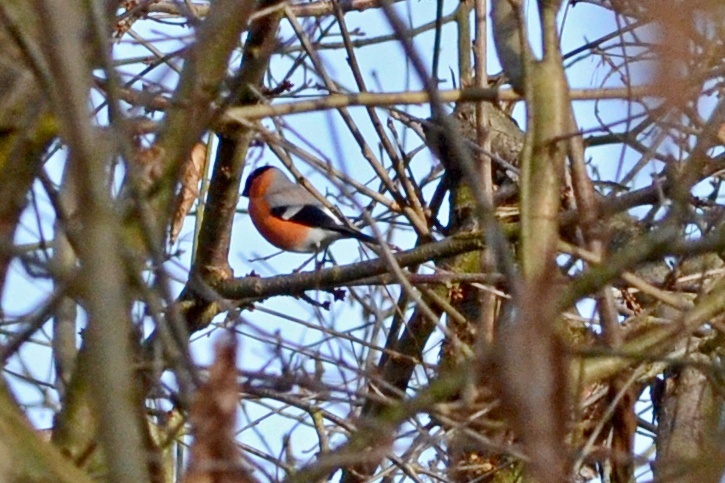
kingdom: Animalia
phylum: Chordata
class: Aves
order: Passeriformes
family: Fringillidae
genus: Pyrrhula
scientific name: Pyrrhula pyrrhula
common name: Eurasian bullfinch
